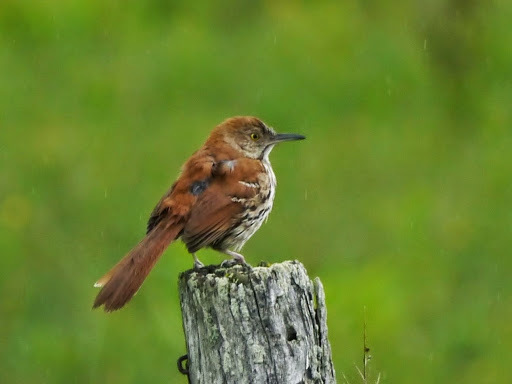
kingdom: Animalia
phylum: Chordata
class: Aves
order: Passeriformes
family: Mimidae
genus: Toxostoma
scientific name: Toxostoma rufum
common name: Brown thrasher
